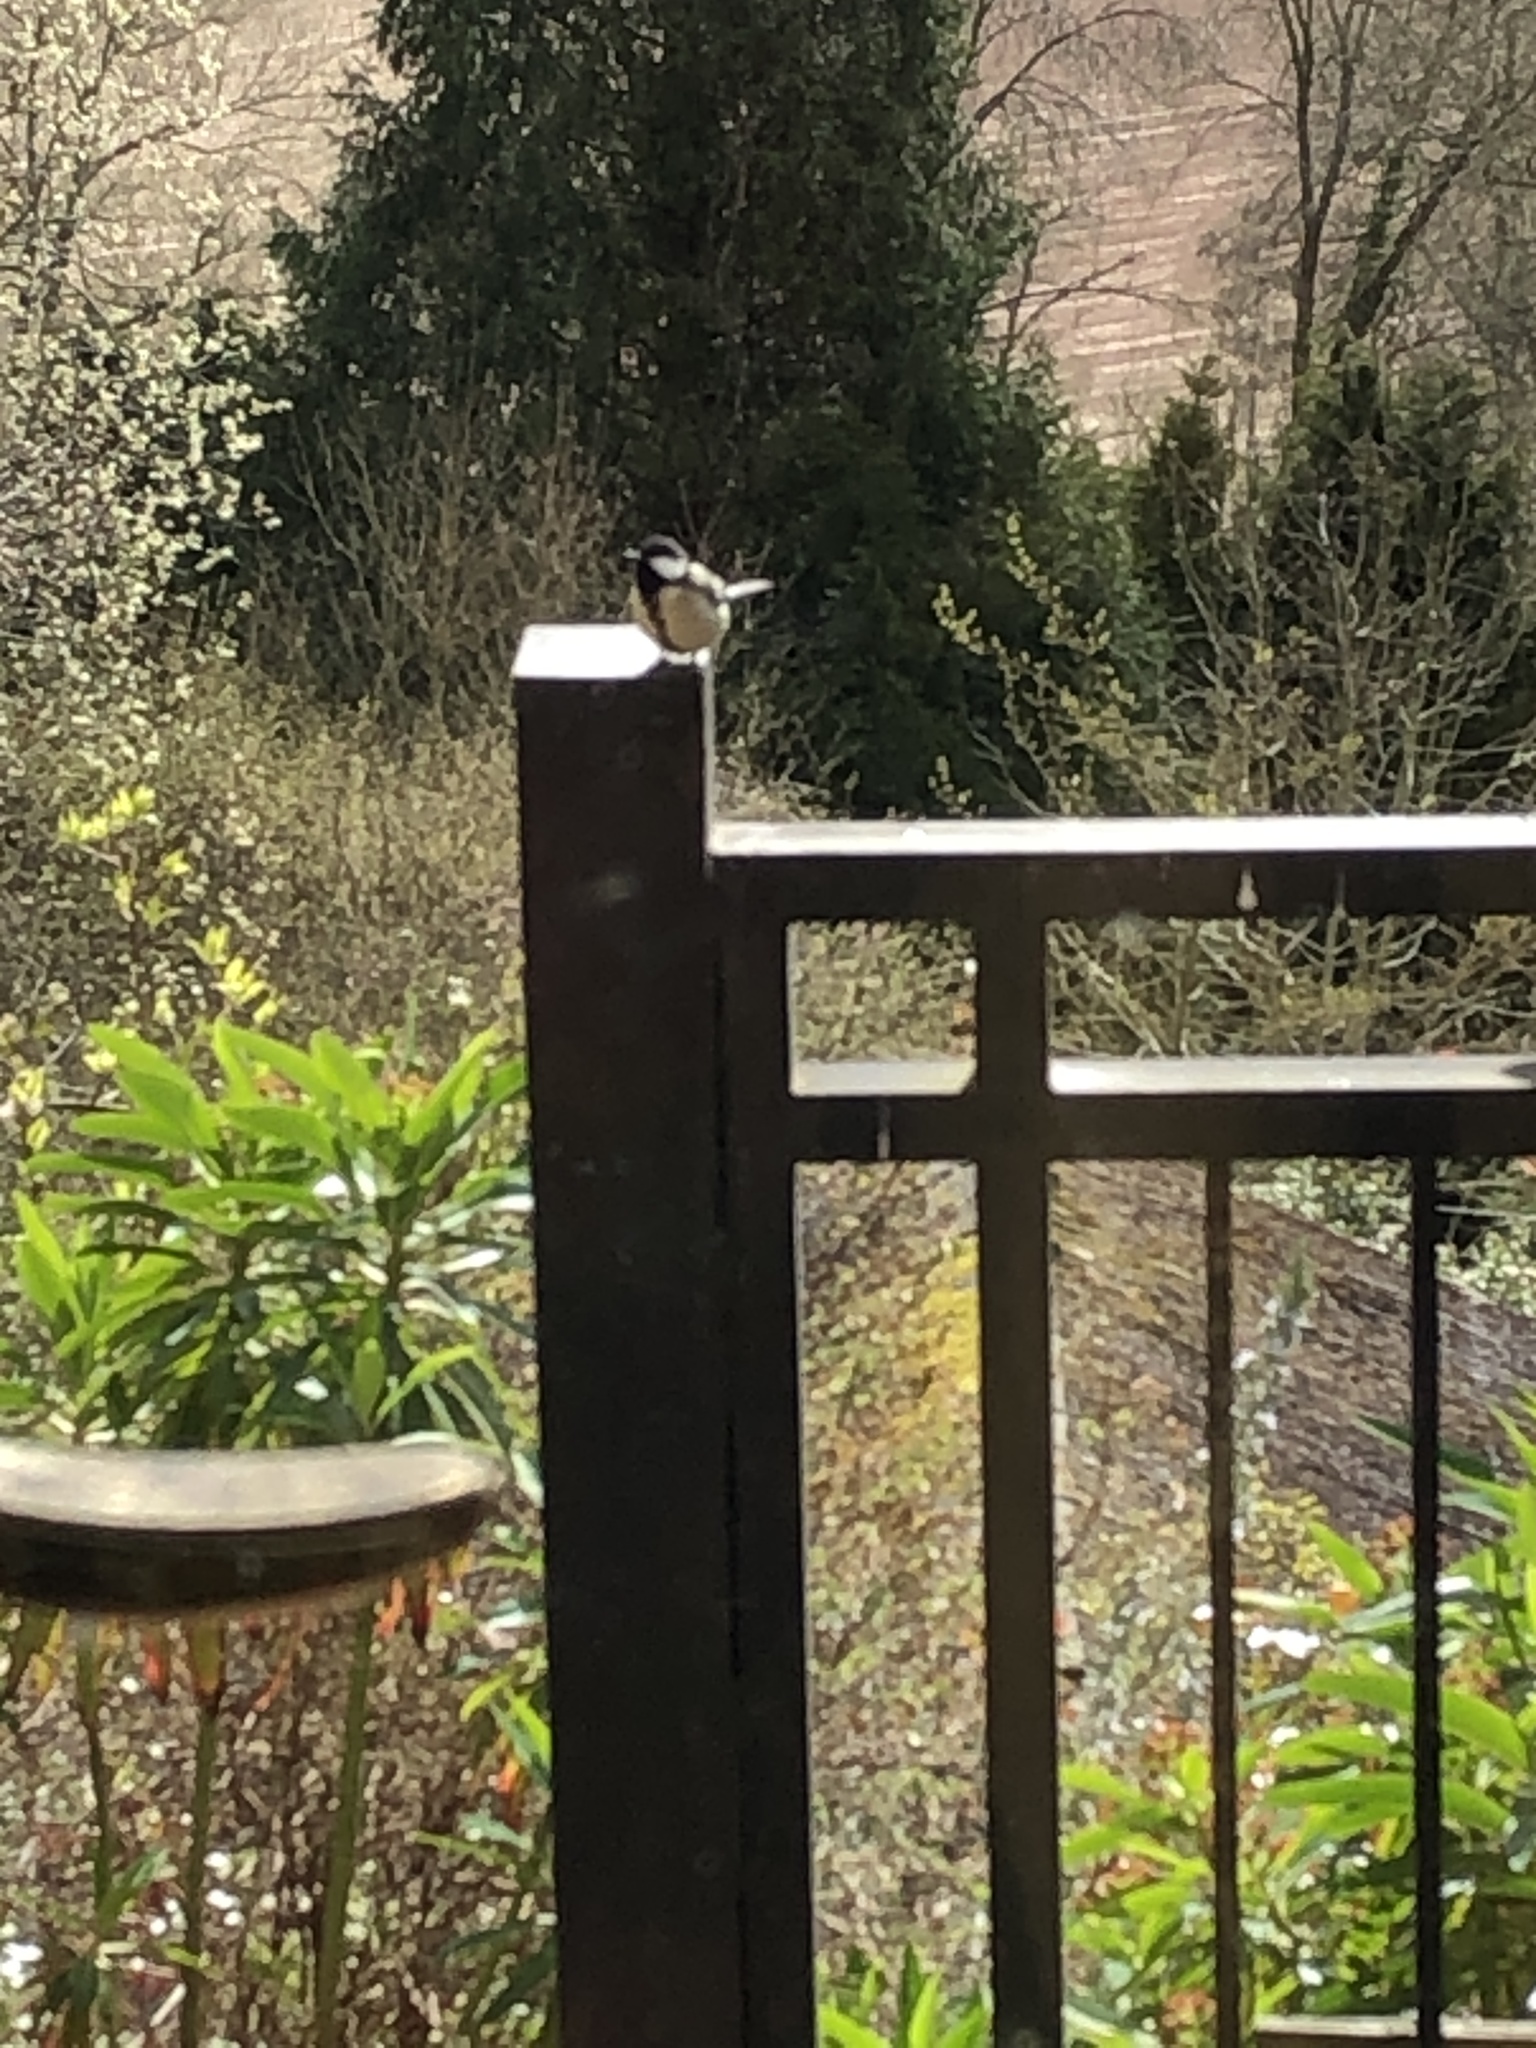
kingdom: Animalia
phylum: Chordata
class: Aves
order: Passeriformes
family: Paridae
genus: Parus
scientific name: Parus major
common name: Great tit
